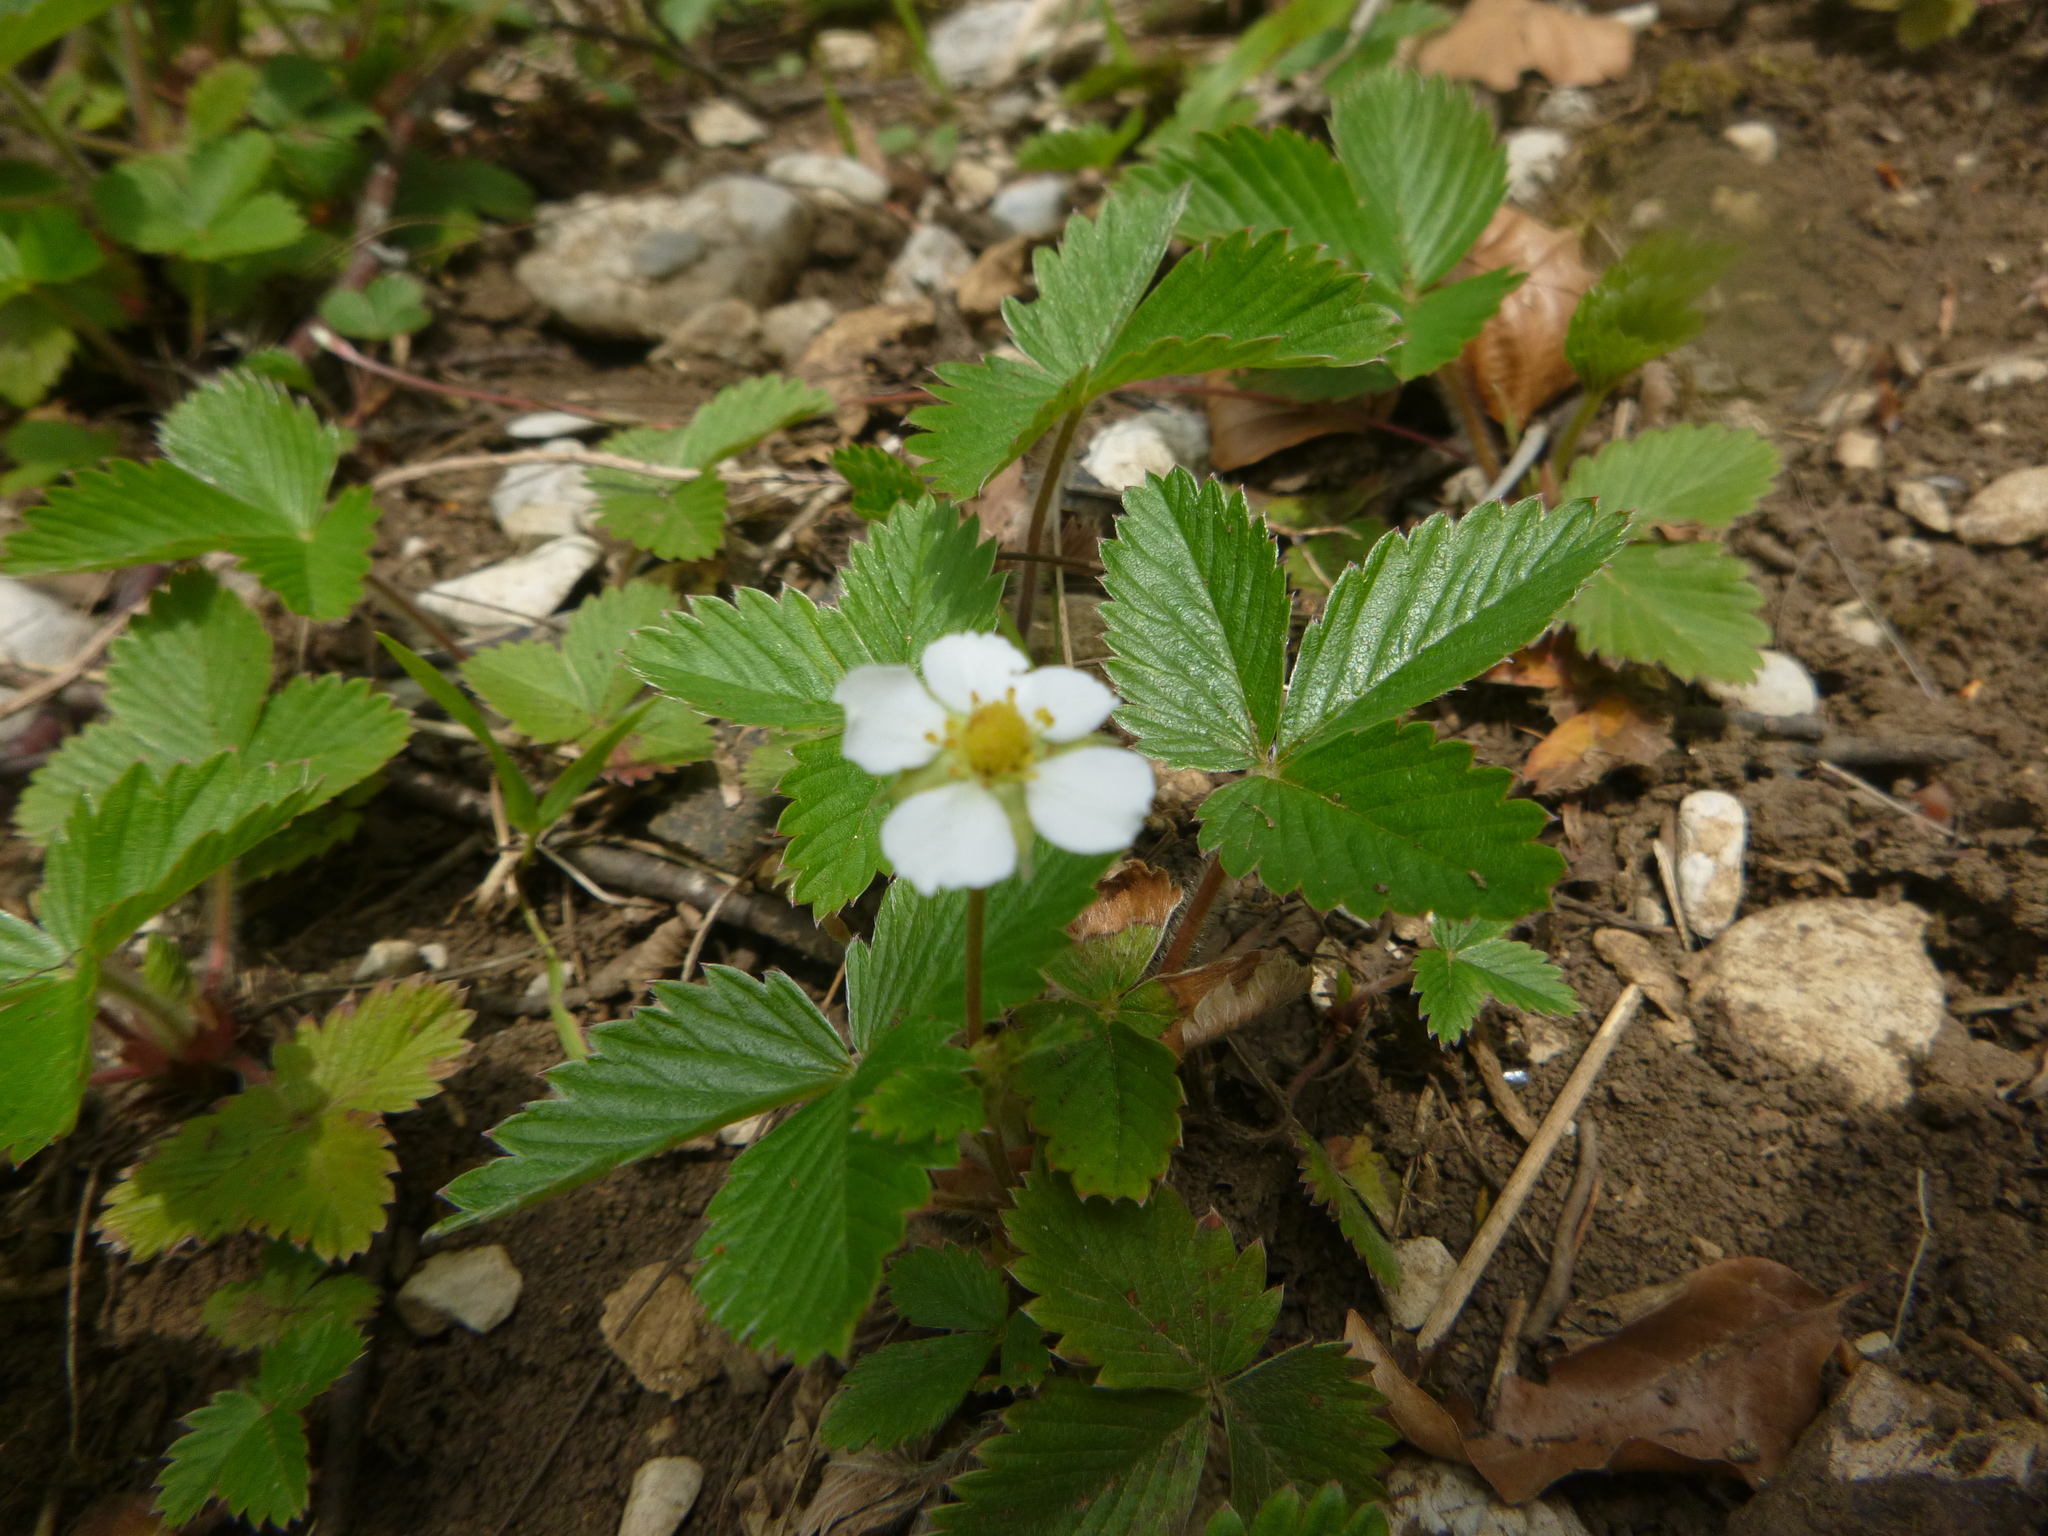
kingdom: Plantae
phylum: Tracheophyta
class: Magnoliopsida
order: Rosales
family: Rosaceae
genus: Fragaria
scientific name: Fragaria vesca
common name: Wild strawberry
